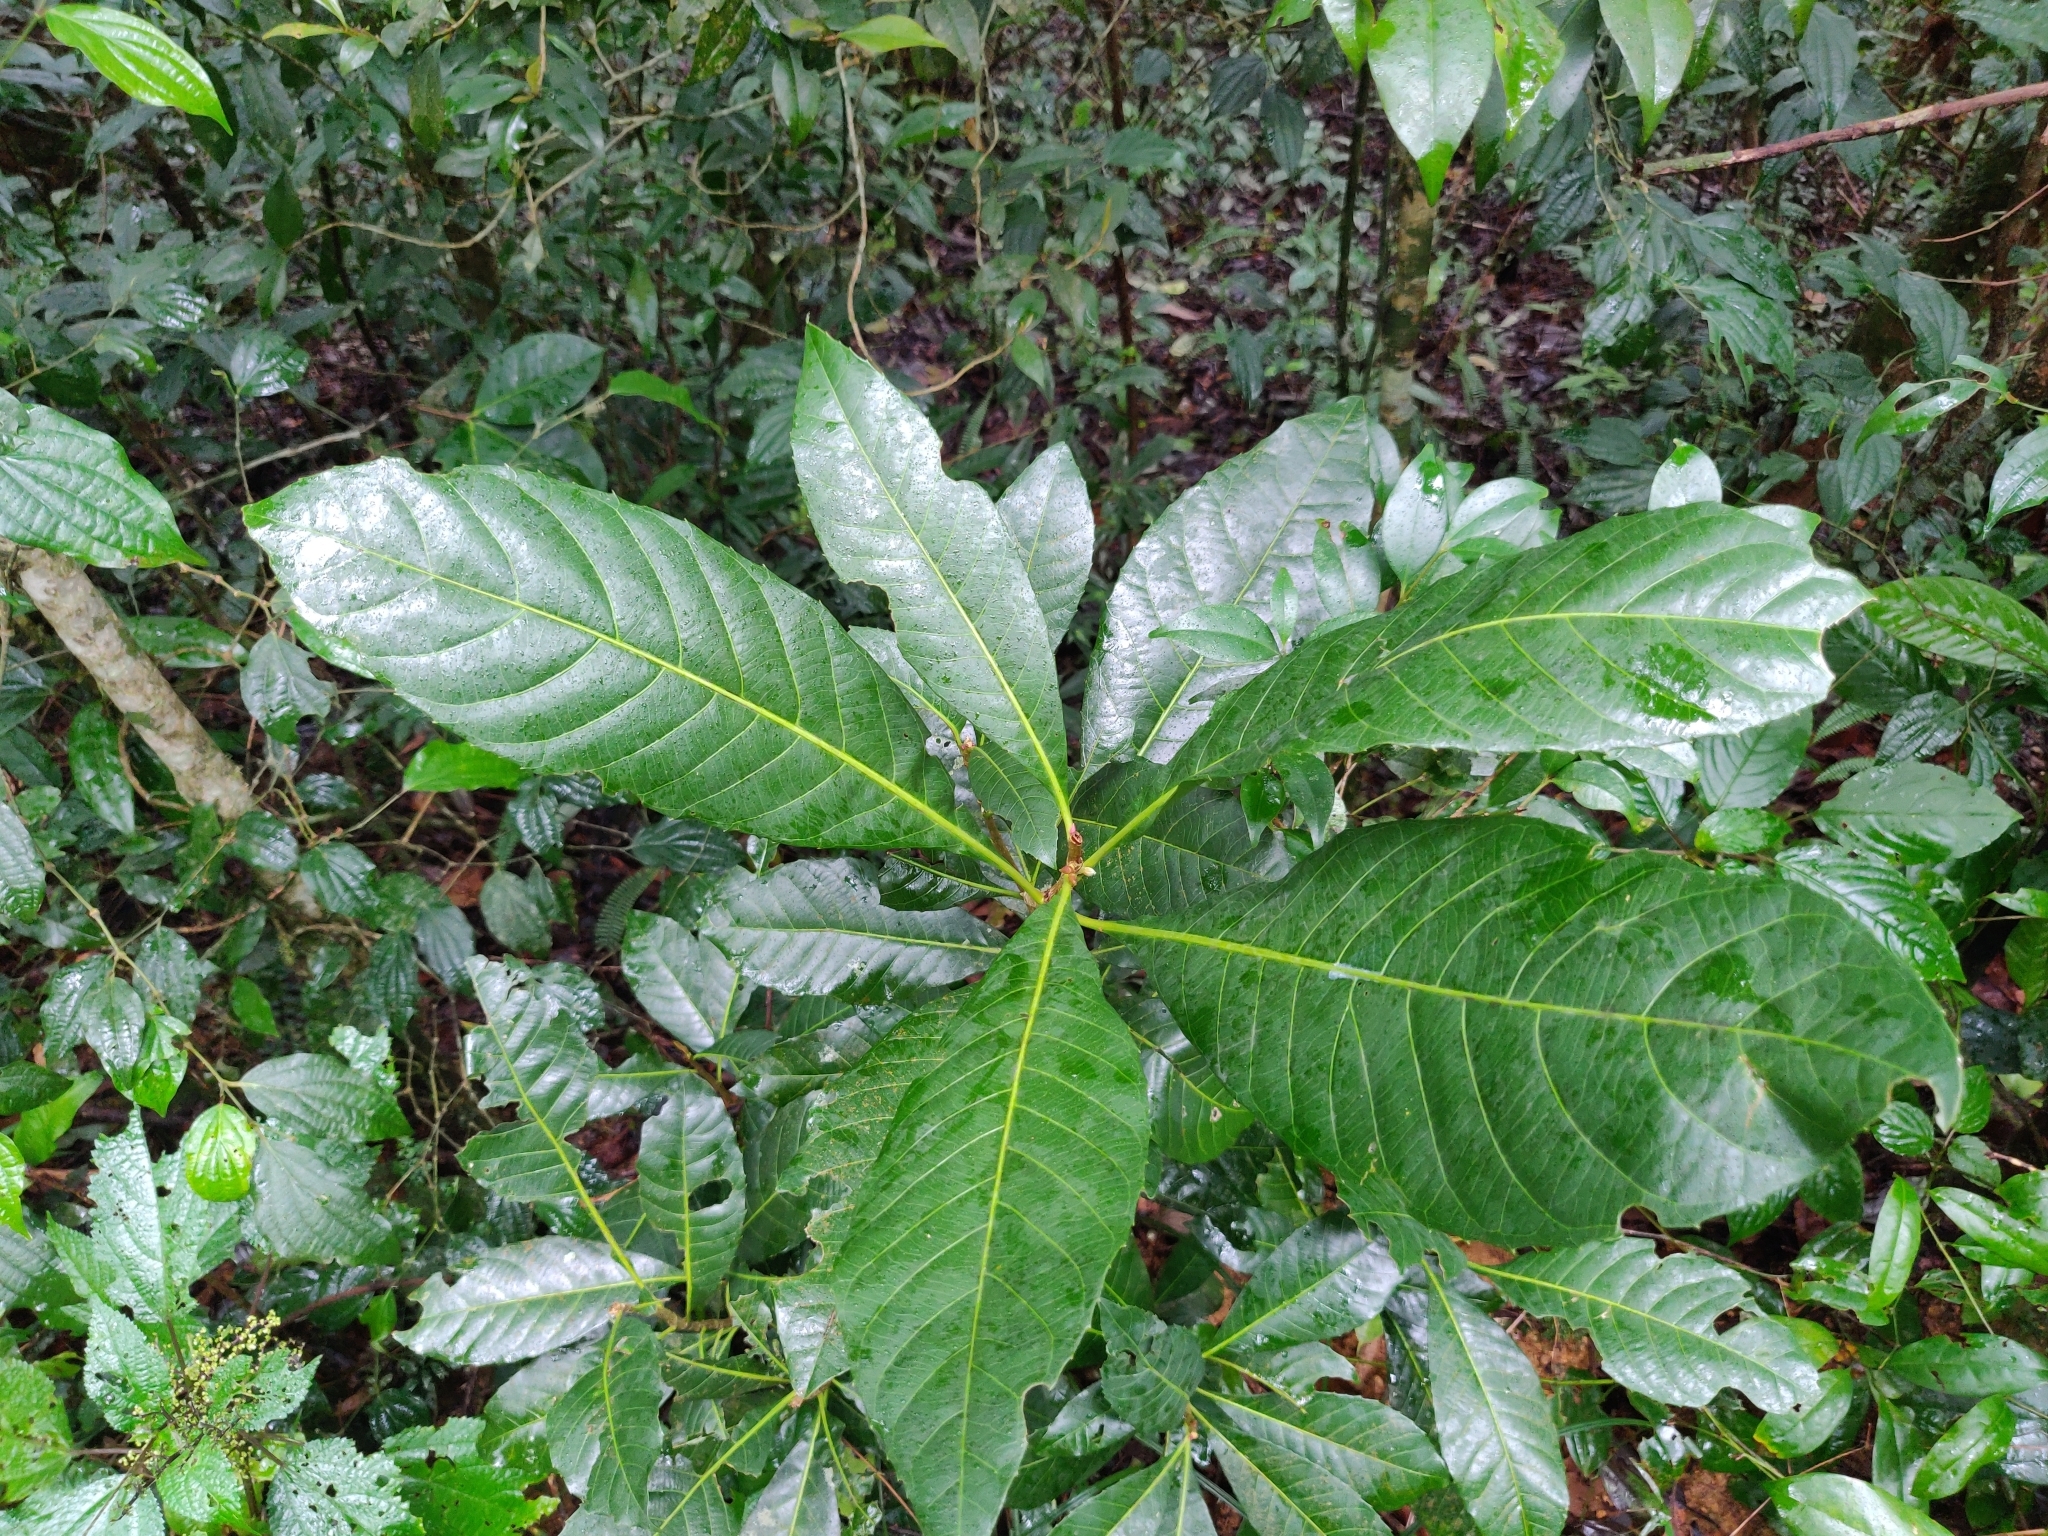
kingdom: Plantae
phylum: Tracheophyta
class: Magnoliopsida
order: Malpighiales
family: Euphorbiaceae
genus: Agrostistachys
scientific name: Agrostistachys indica
